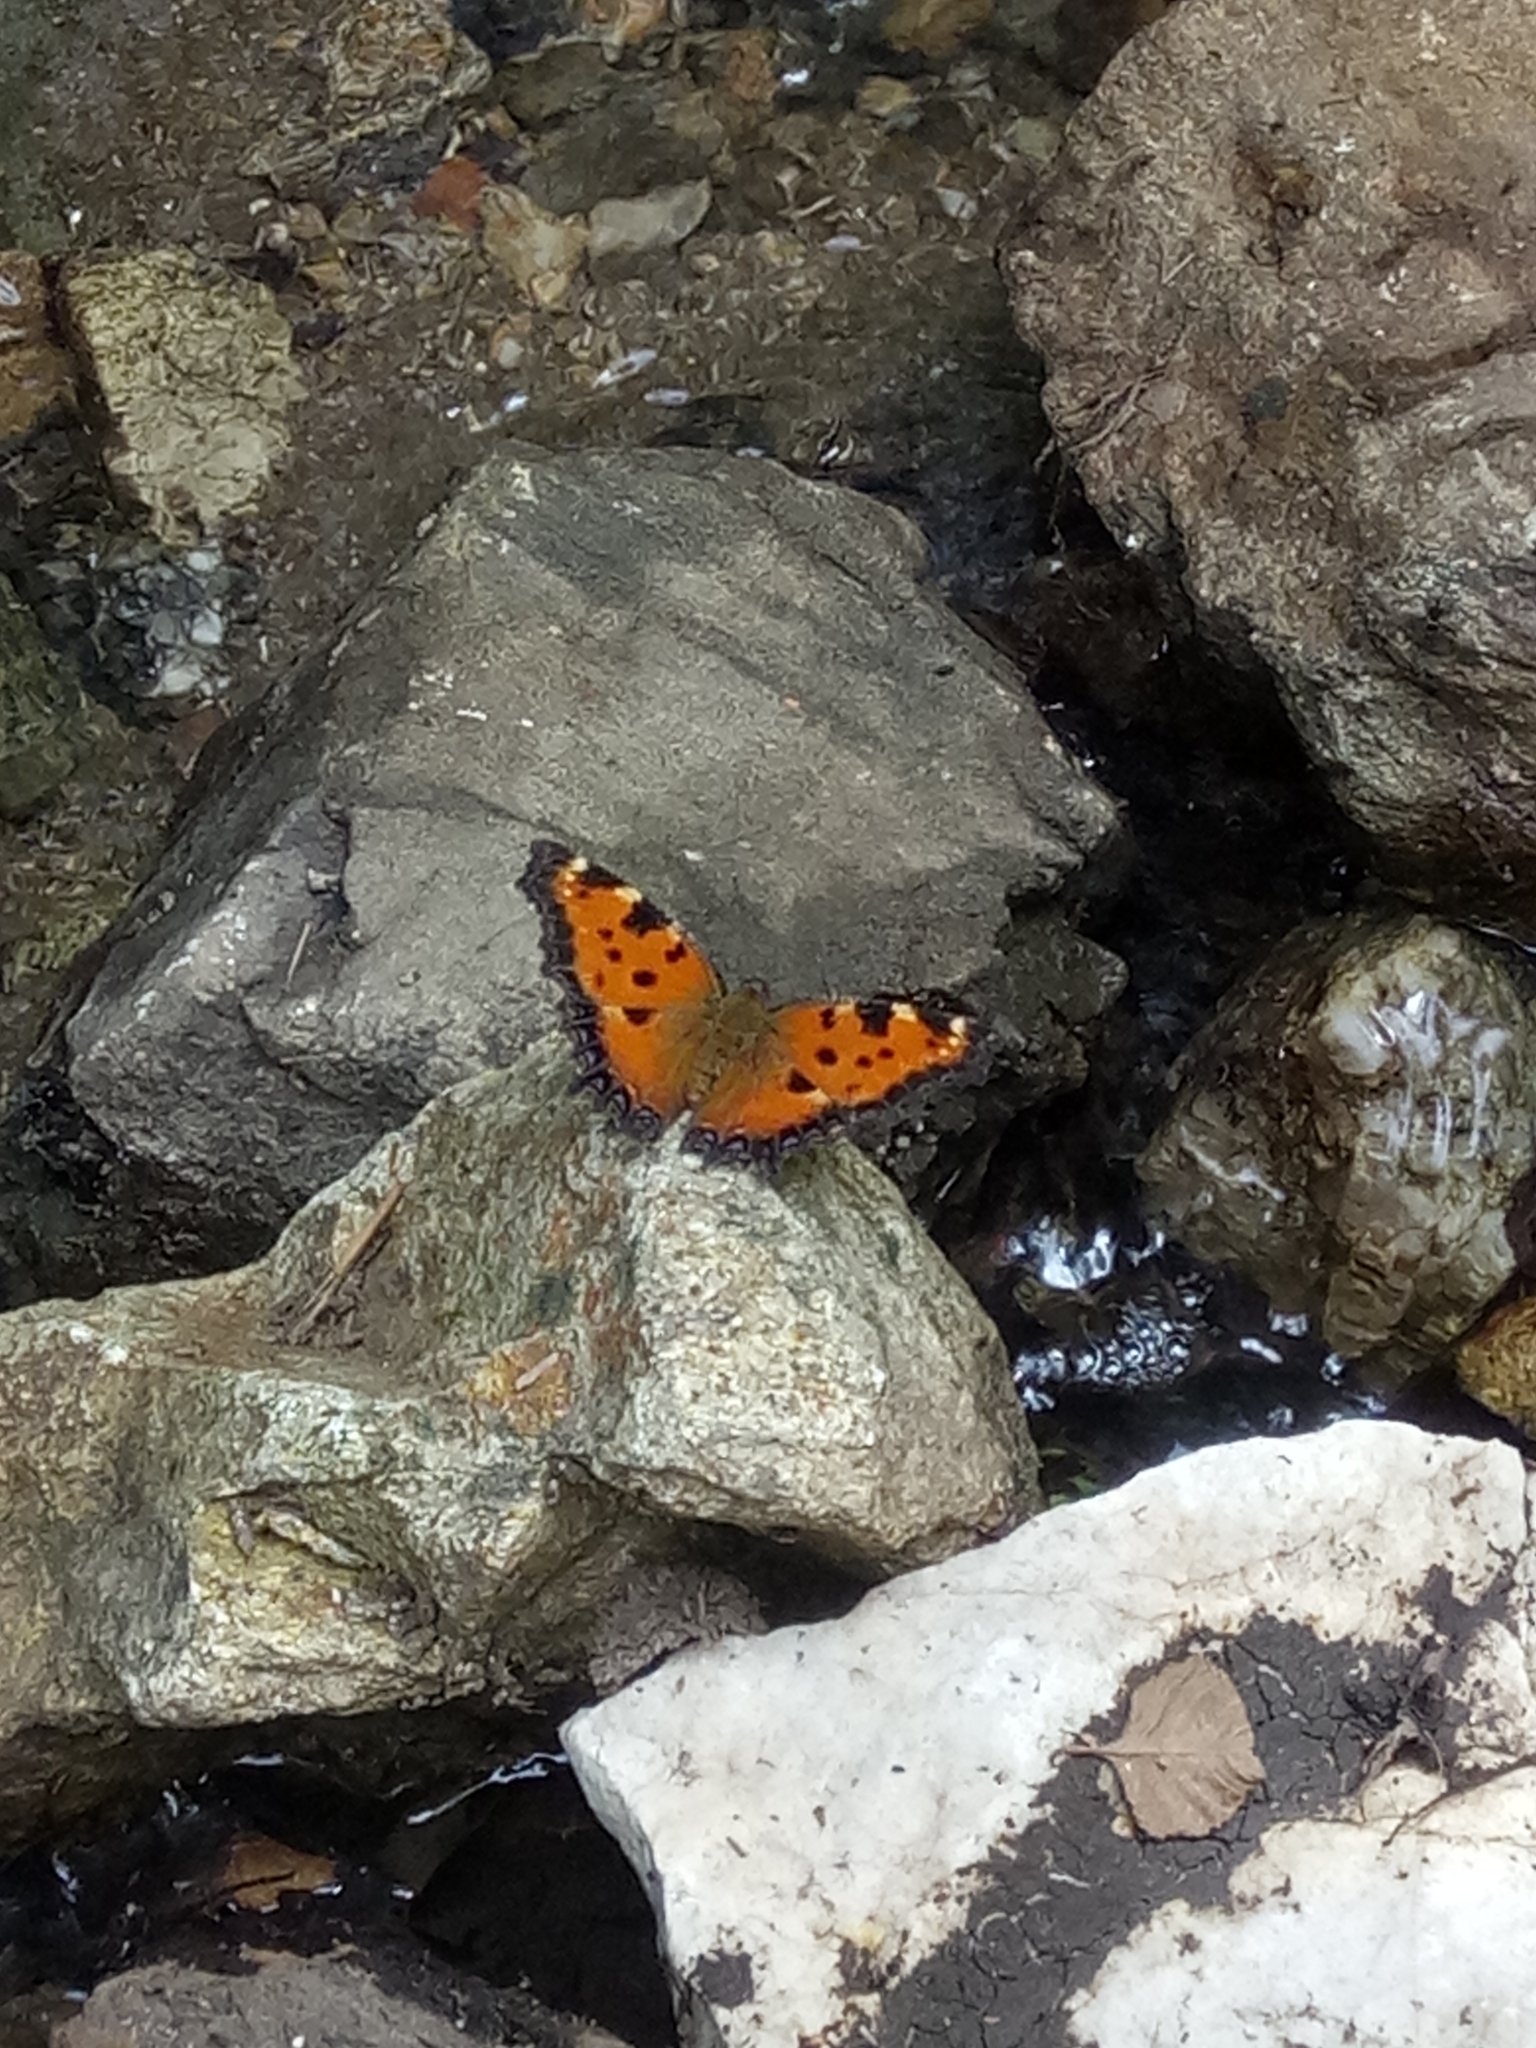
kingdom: Animalia
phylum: Arthropoda
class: Insecta
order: Lepidoptera
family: Nymphalidae
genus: Nymphalis
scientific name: Nymphalis polychloros
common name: Large tortoiseshell
